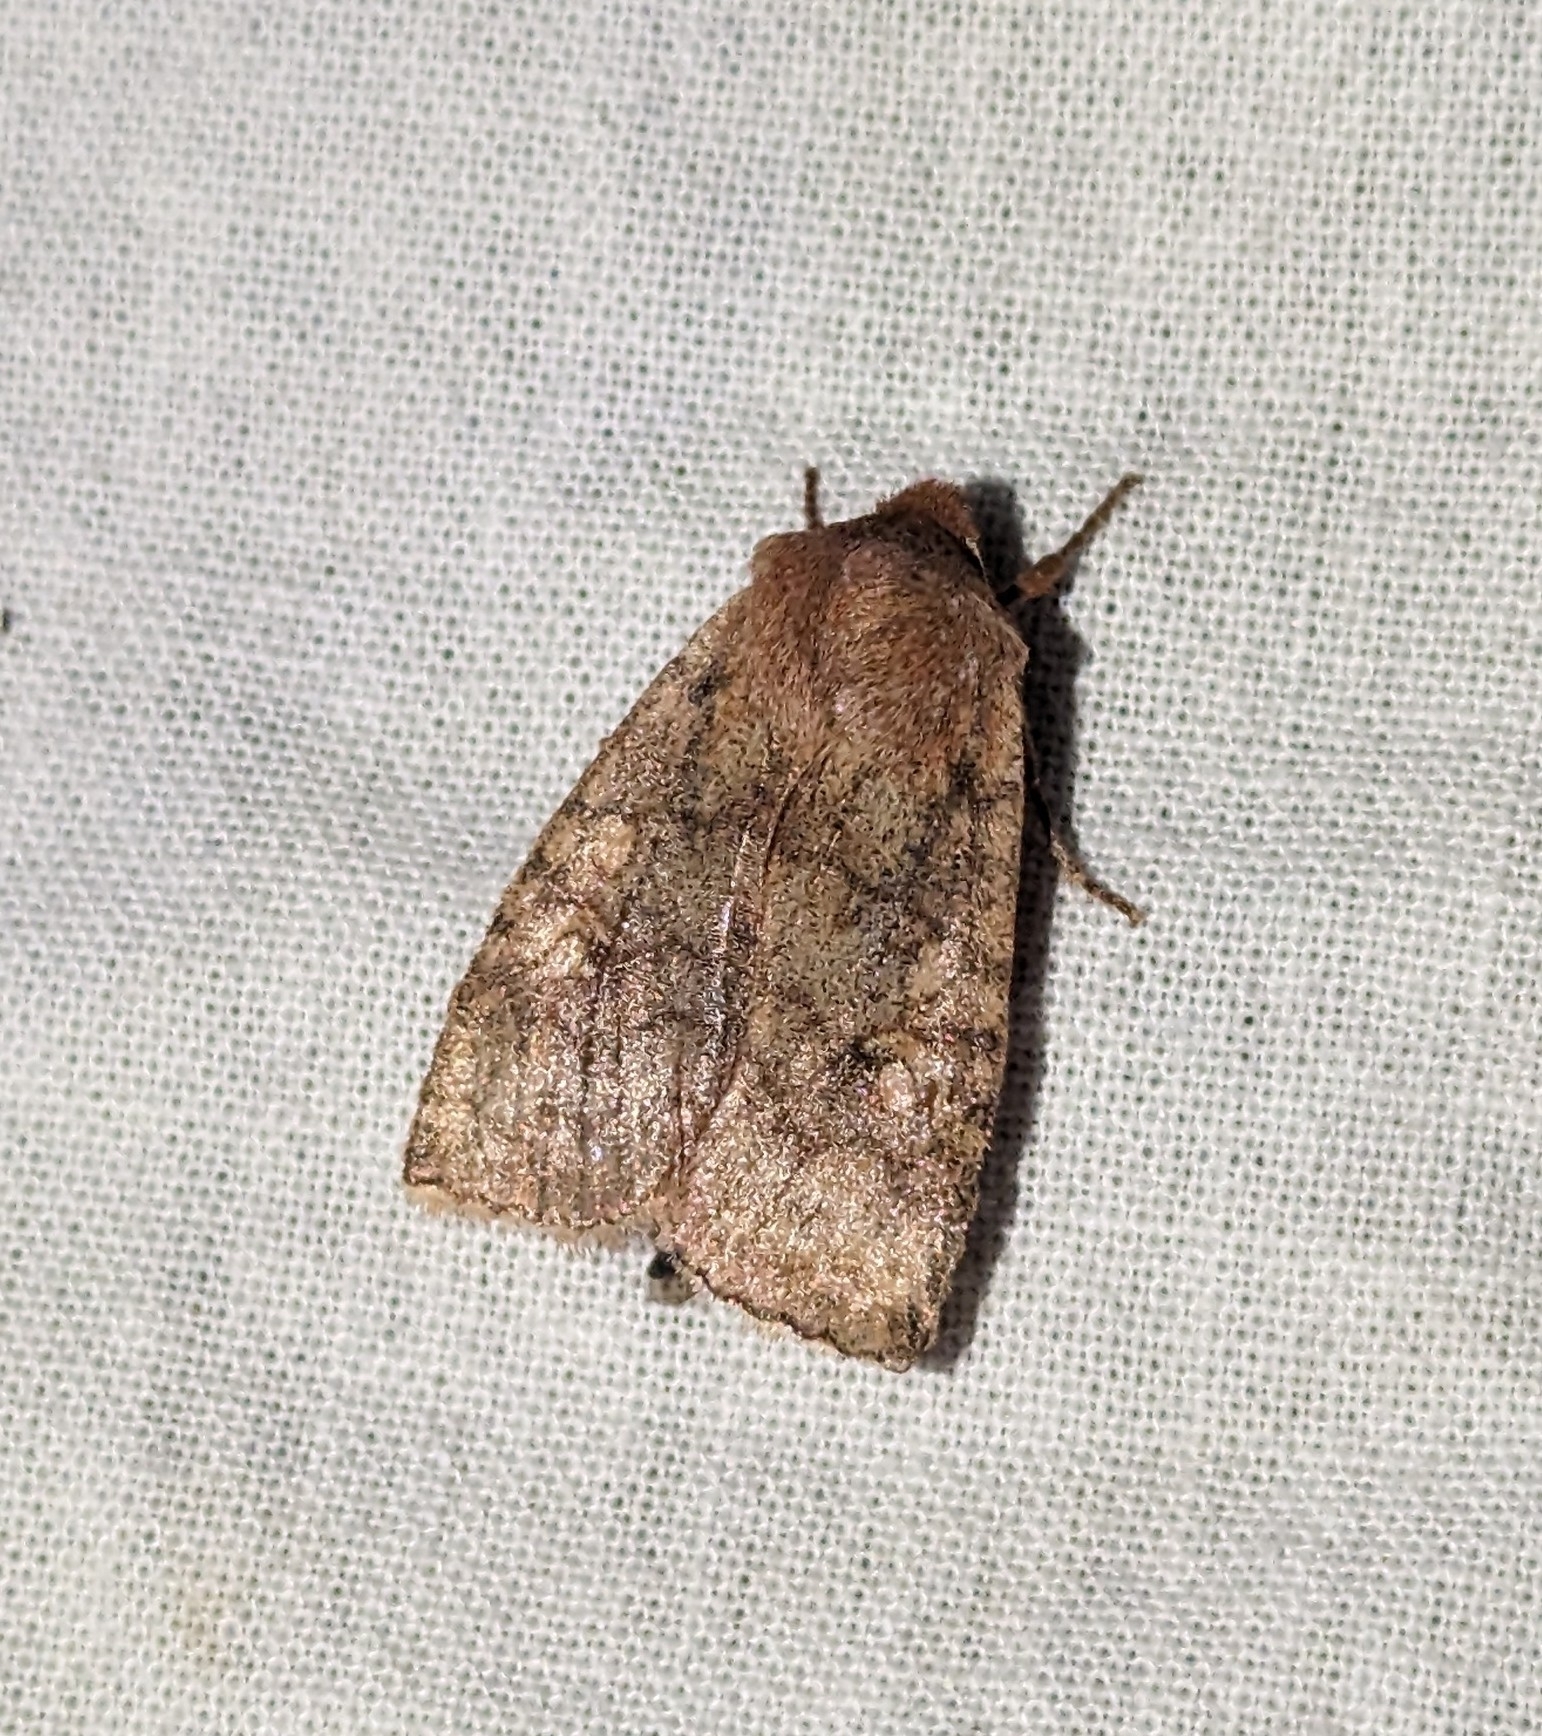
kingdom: Animalia
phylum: Arthropoda
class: Insecta
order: Lepidoptera
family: Noctuidae
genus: Eupsilia
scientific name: Eupsilia tristigmata
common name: Three-spotted sallow
